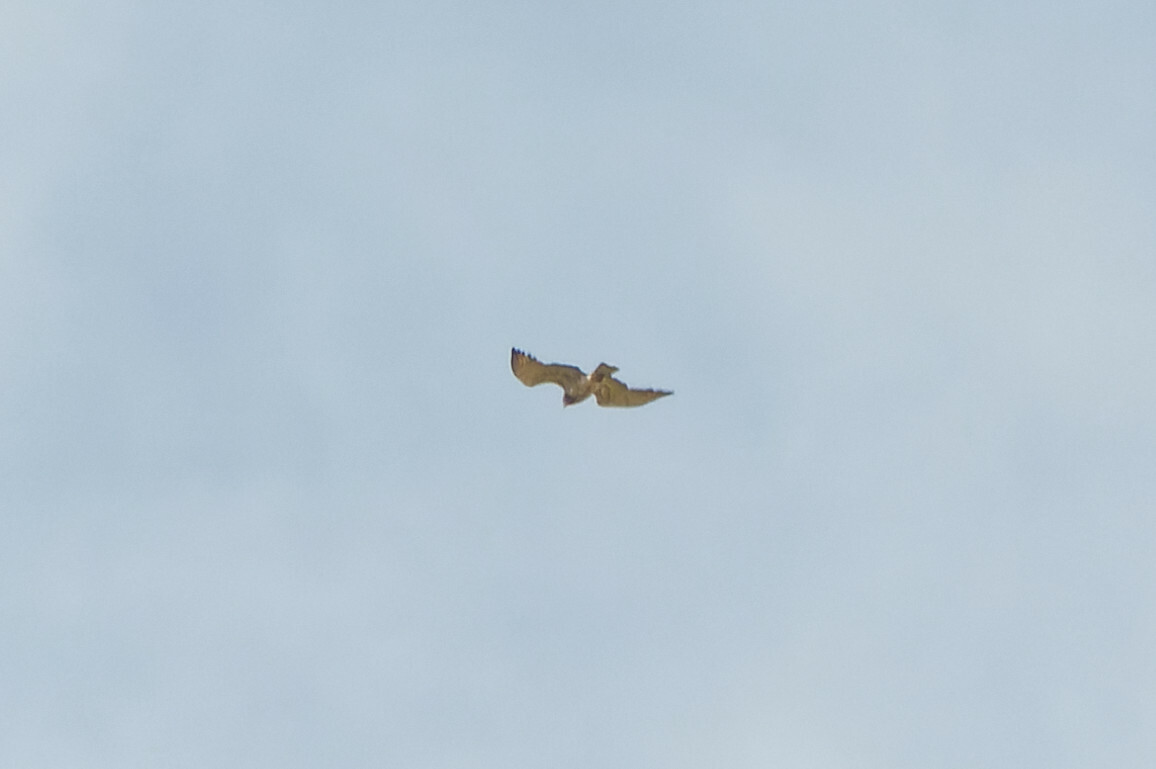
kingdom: Animalia
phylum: Chordata
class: Aves
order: Accipitriformes
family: Accipitridae
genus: Circaetus
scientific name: Circaetus gallicus
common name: Short-toed snake eagle
